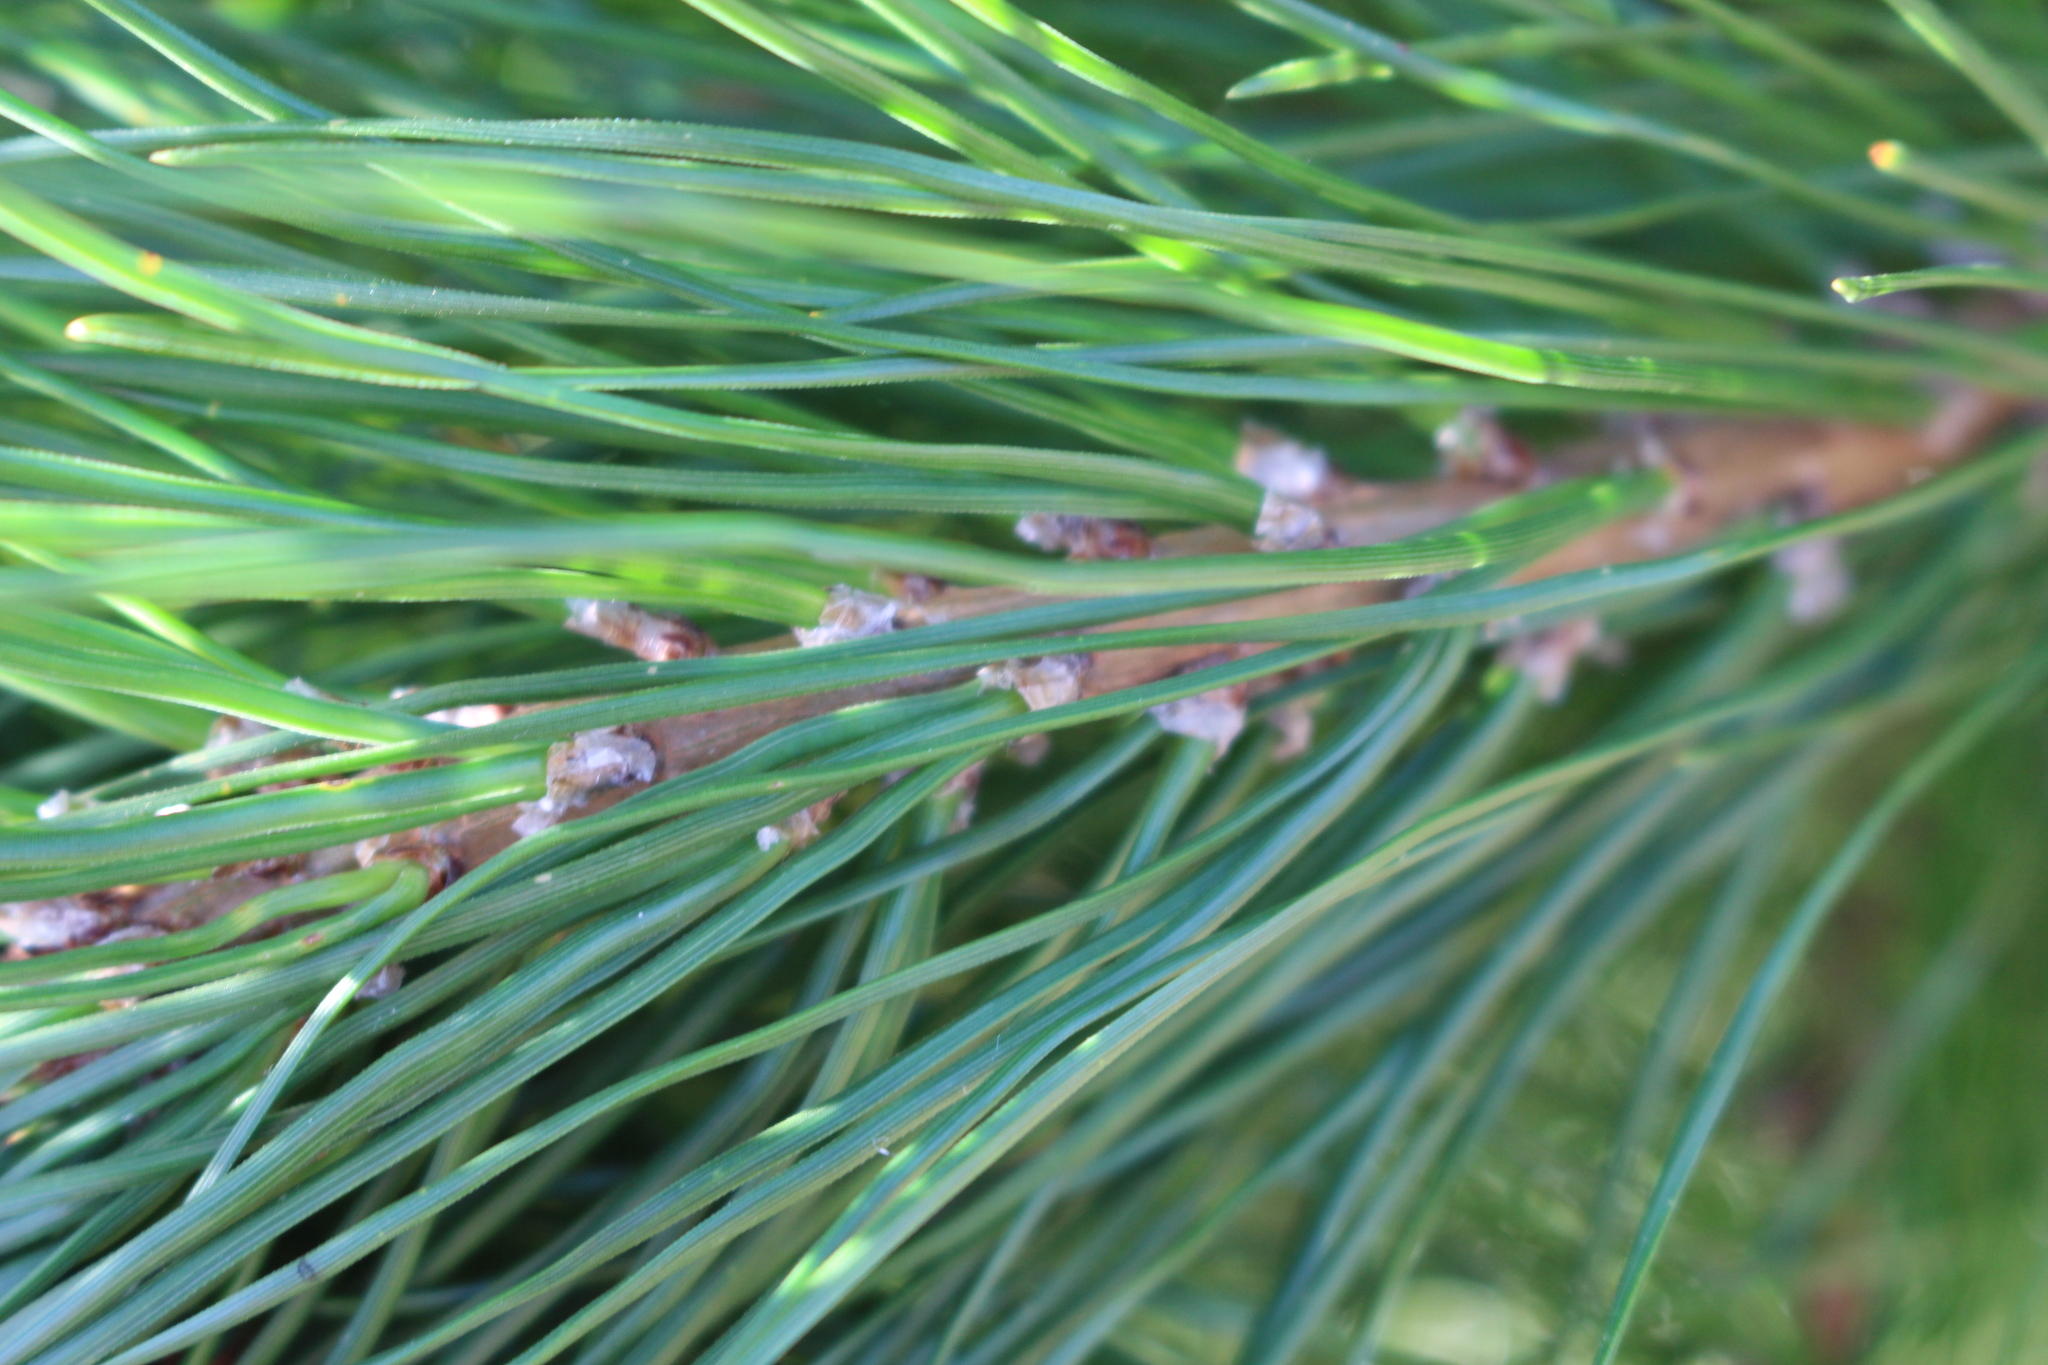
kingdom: Plantae
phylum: Tracheophyta
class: Pinopsida
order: Pinales
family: Pinaceae
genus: Pinus
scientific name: Pinus radiata
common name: Monterey pine
